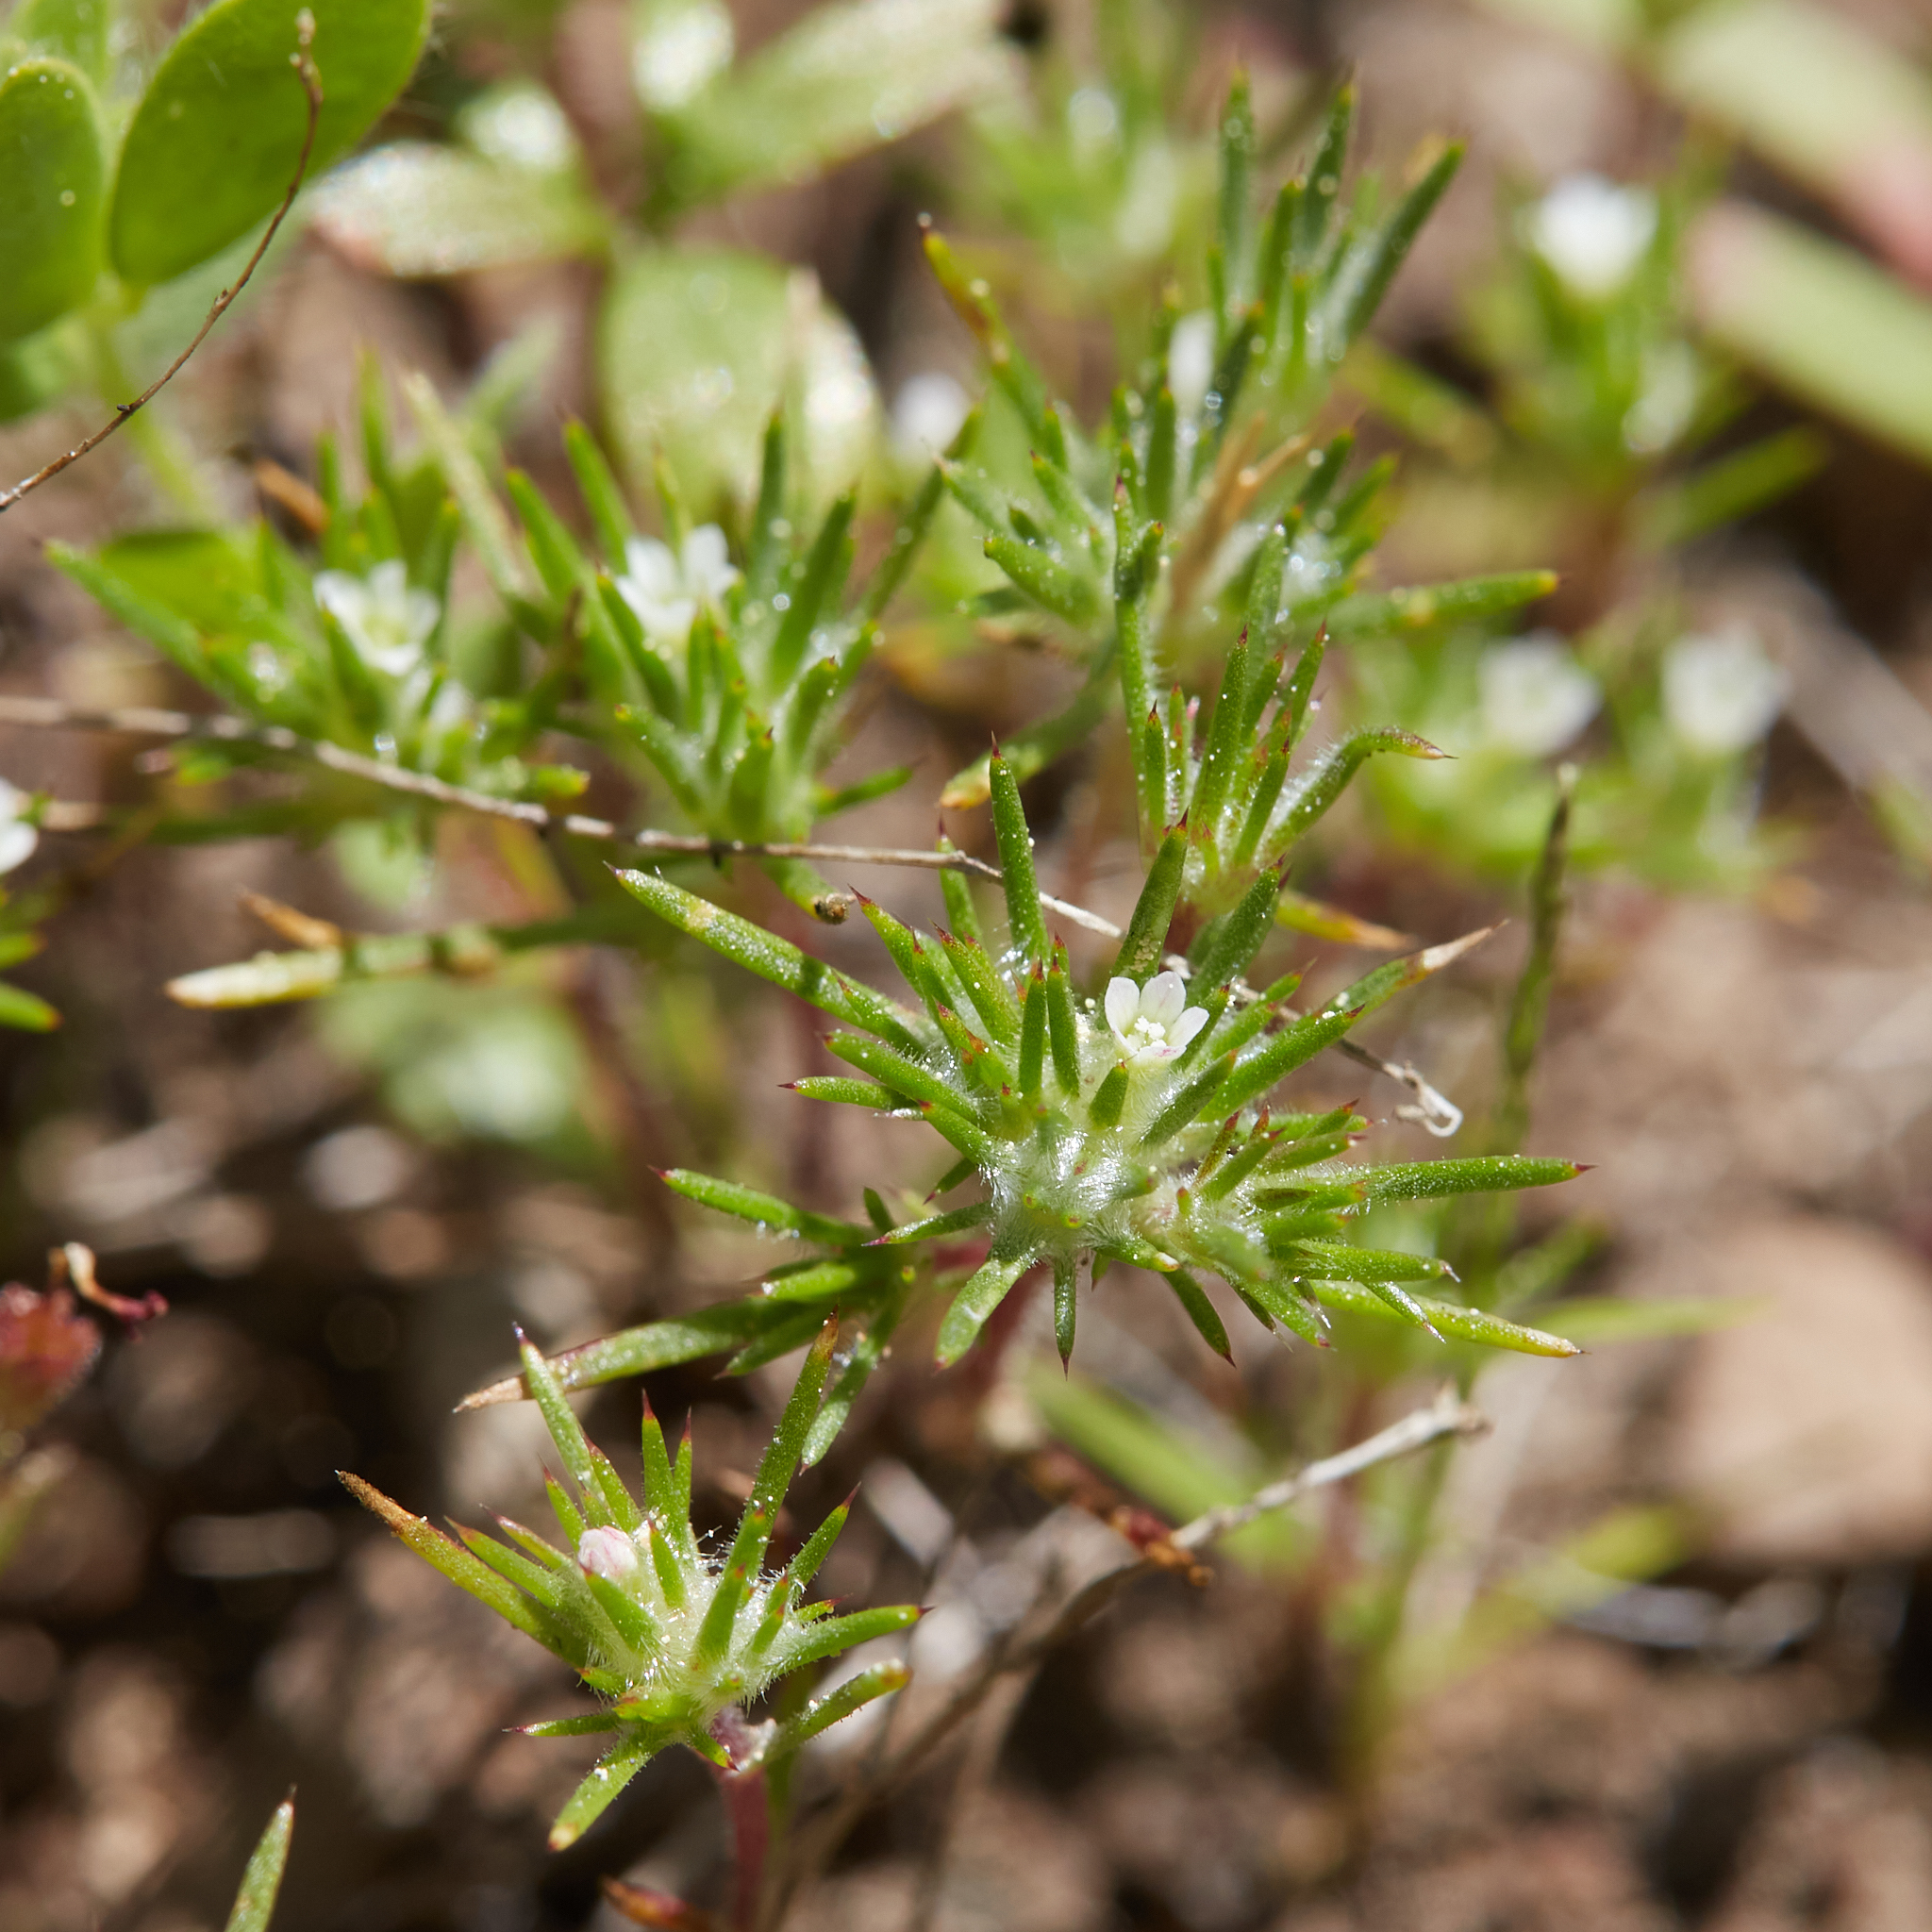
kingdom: Plantae
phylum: Tracheophyta
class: Magnoliopsida
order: Ericales
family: Polemoniaceae
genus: Navarretia
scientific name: Navarretia divaricata
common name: Mountain navarretia
